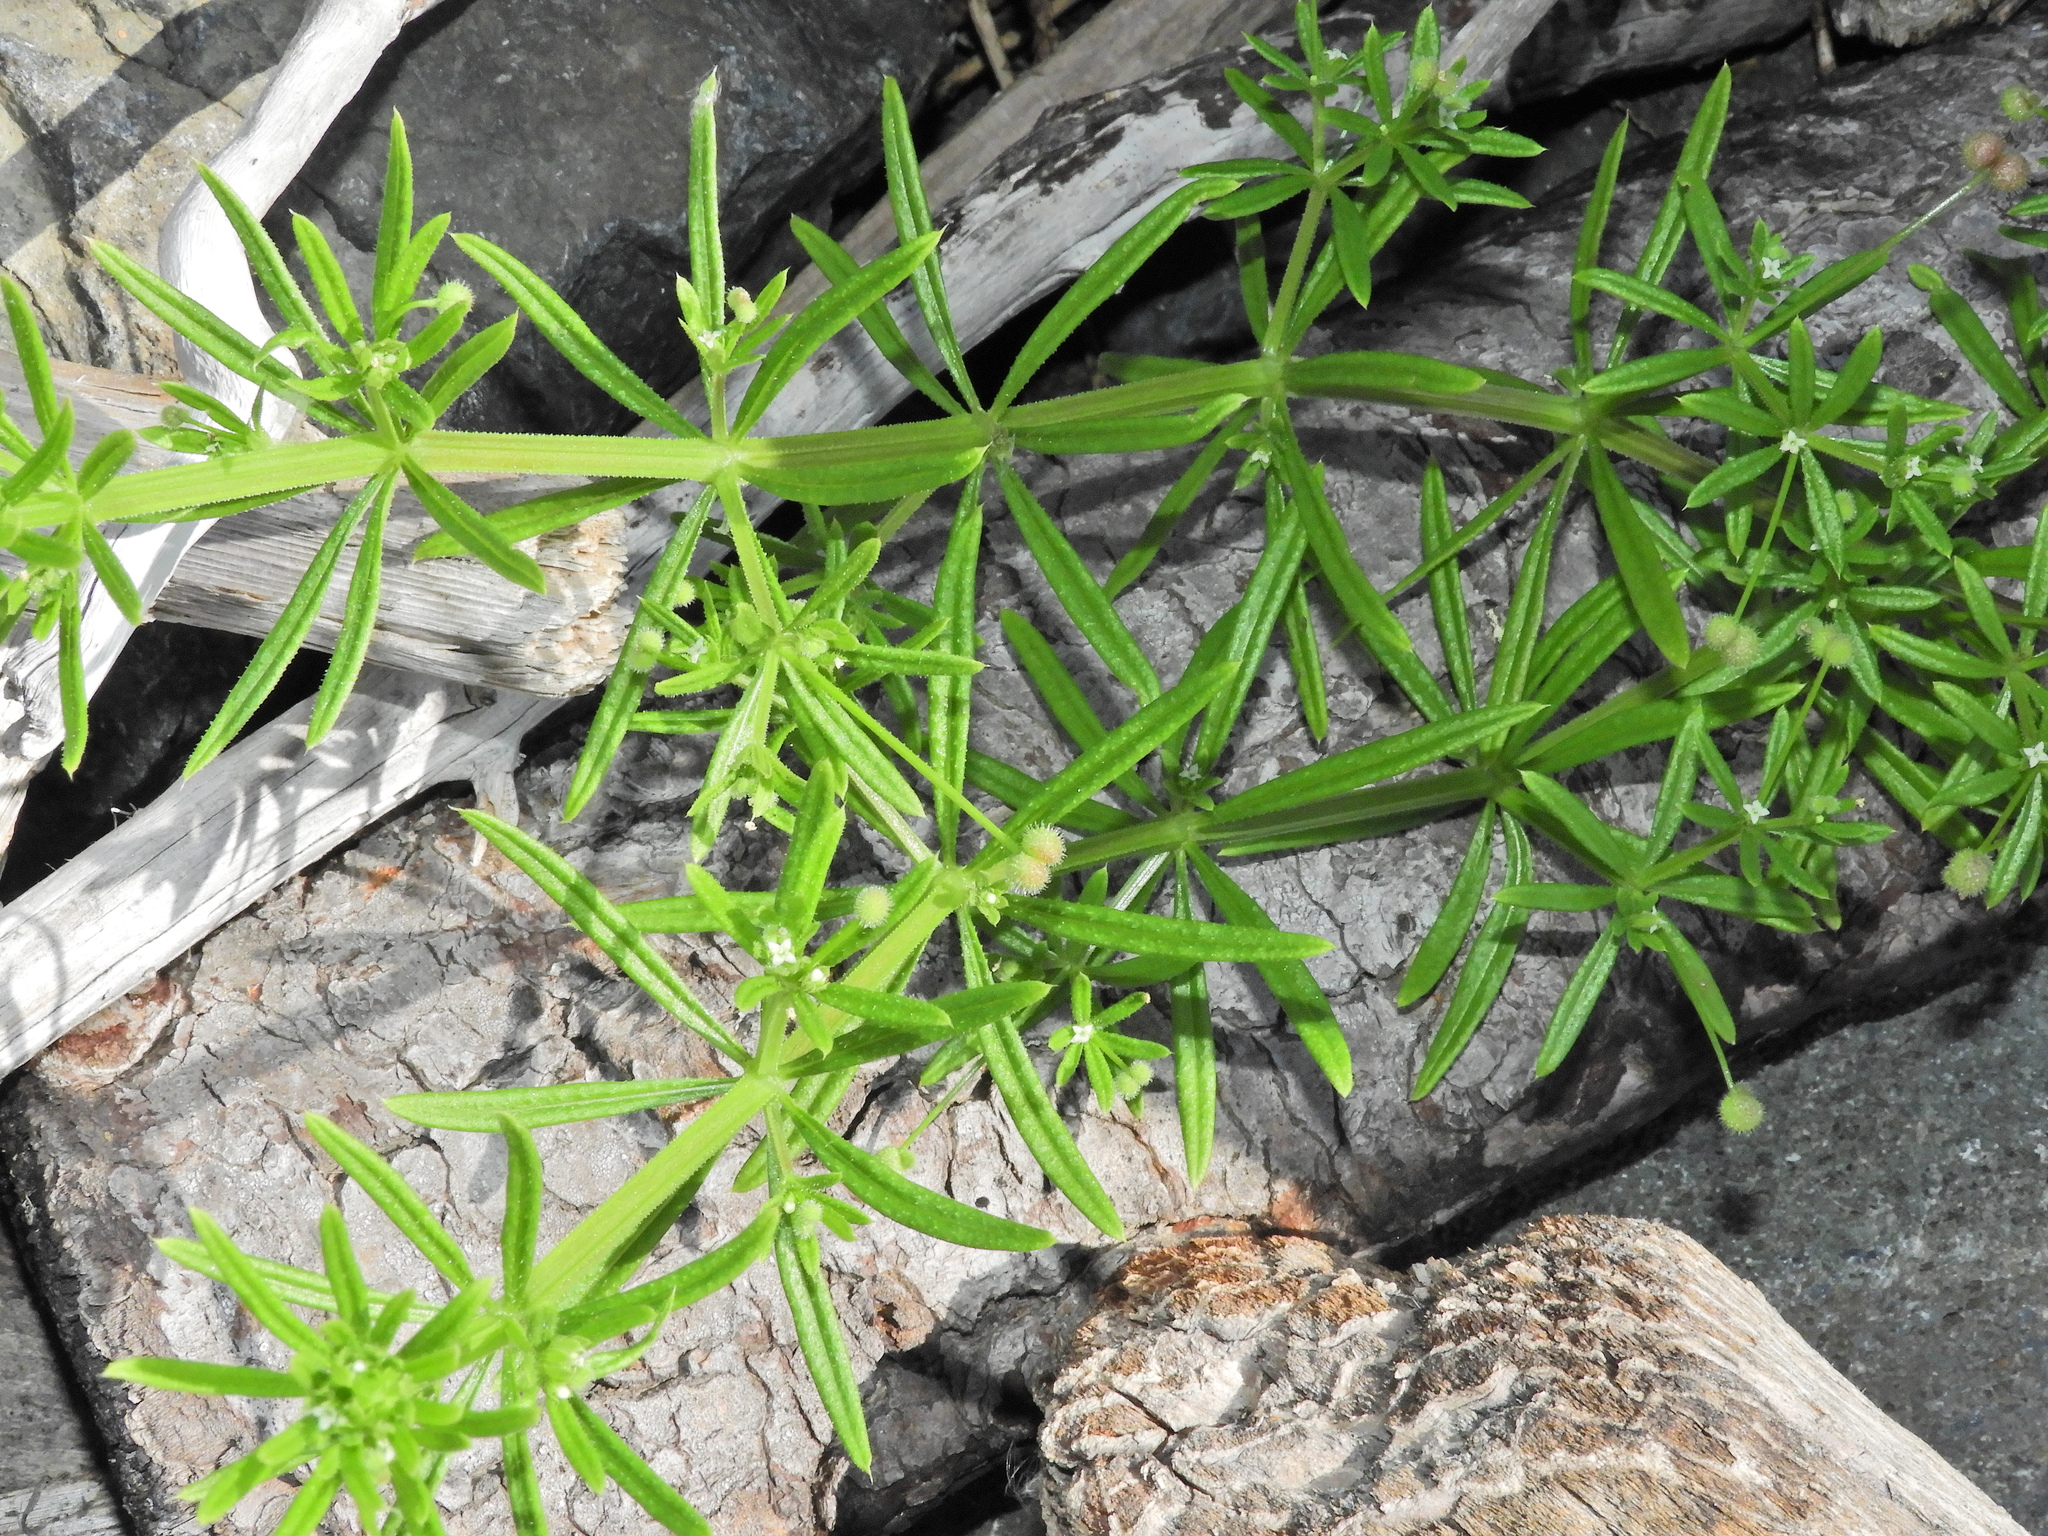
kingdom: Plantae
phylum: Tracheophyta
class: Magnoliopsida
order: Gentianales
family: Rubiaceae
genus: Galium
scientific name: Galium aparine
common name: Cleavers
